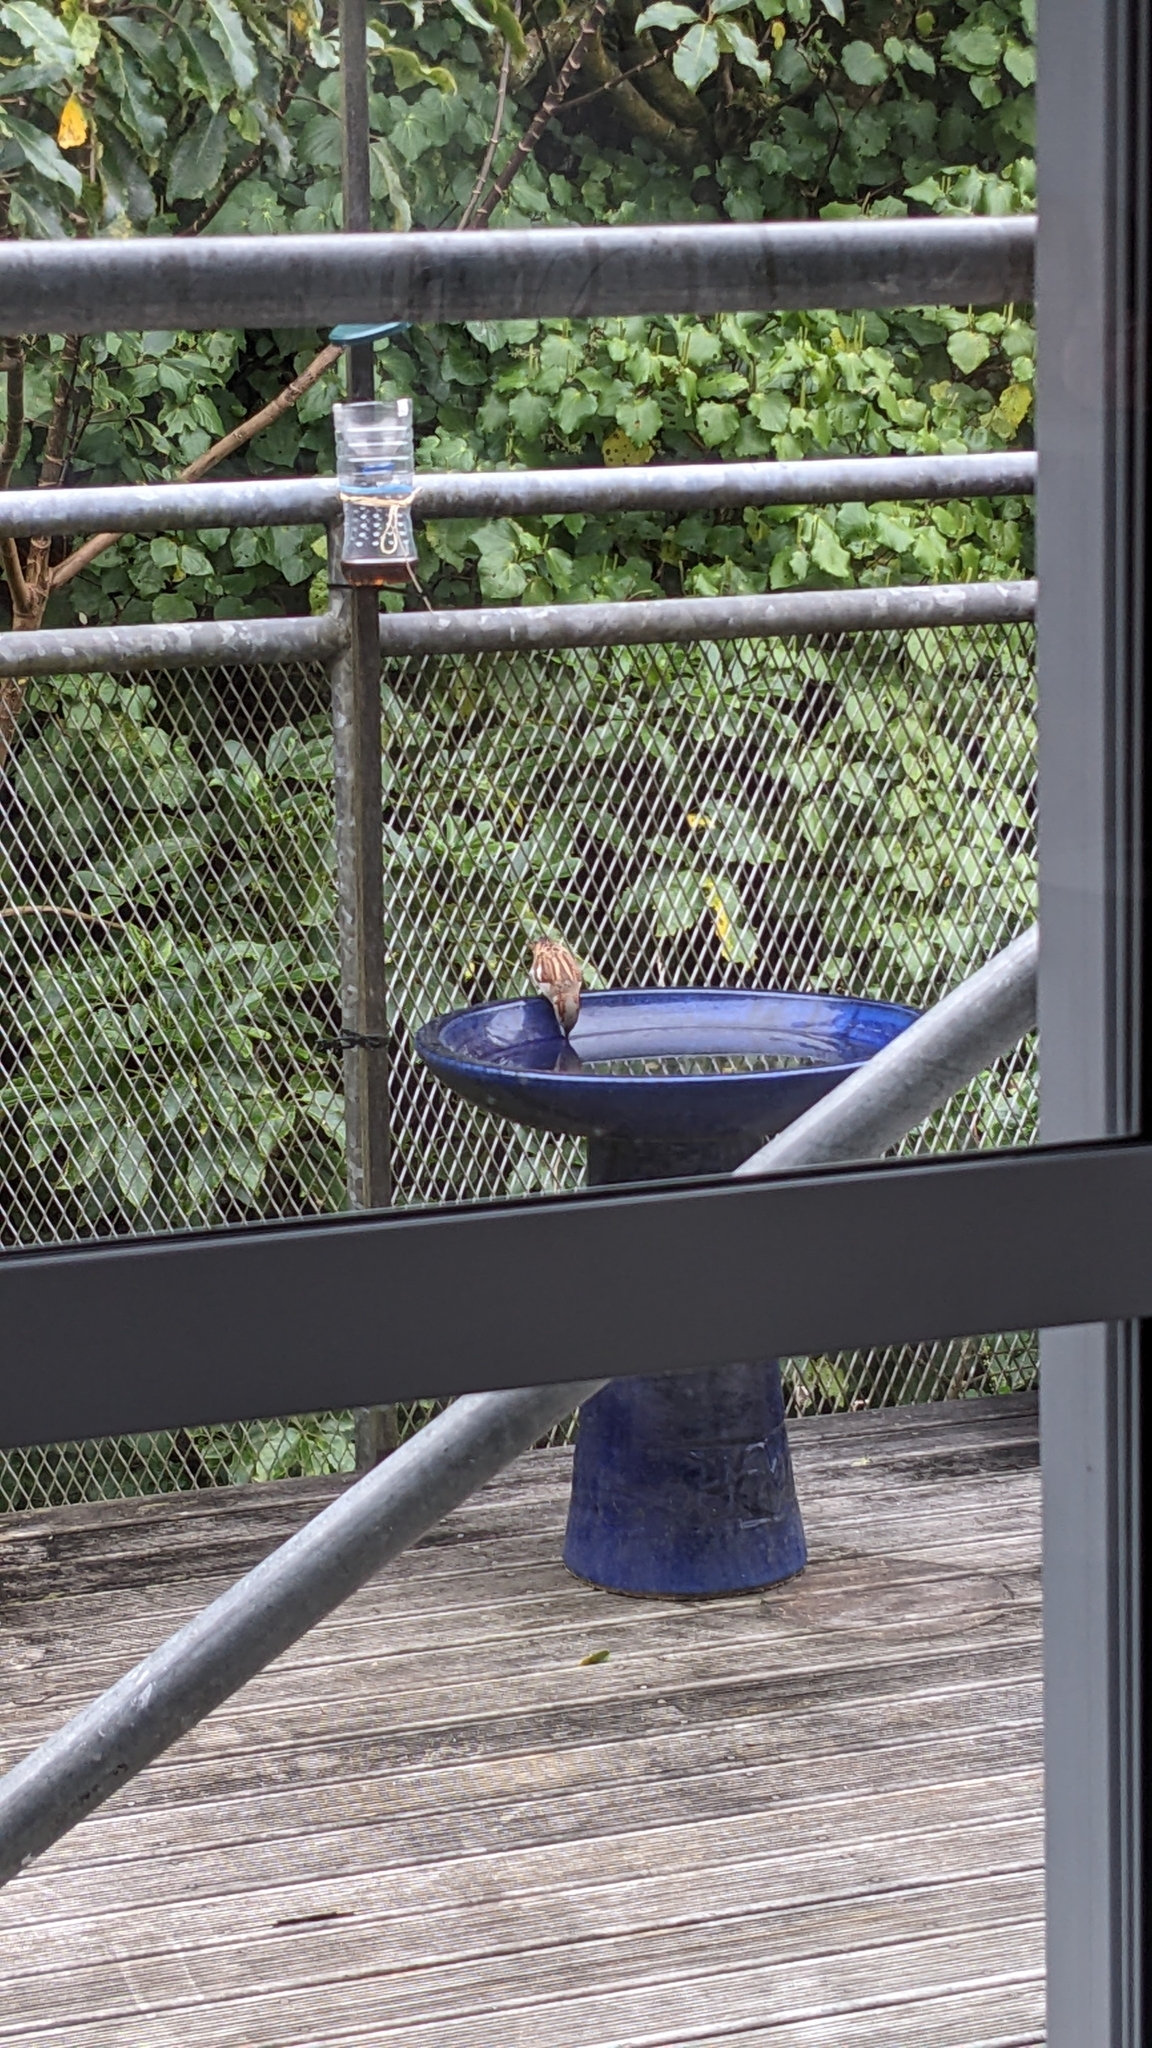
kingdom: Animalia
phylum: Chordata
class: Aves
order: Passeriformes
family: Passeridae
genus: Passer
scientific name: Passer domesticus
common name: House sparrow
